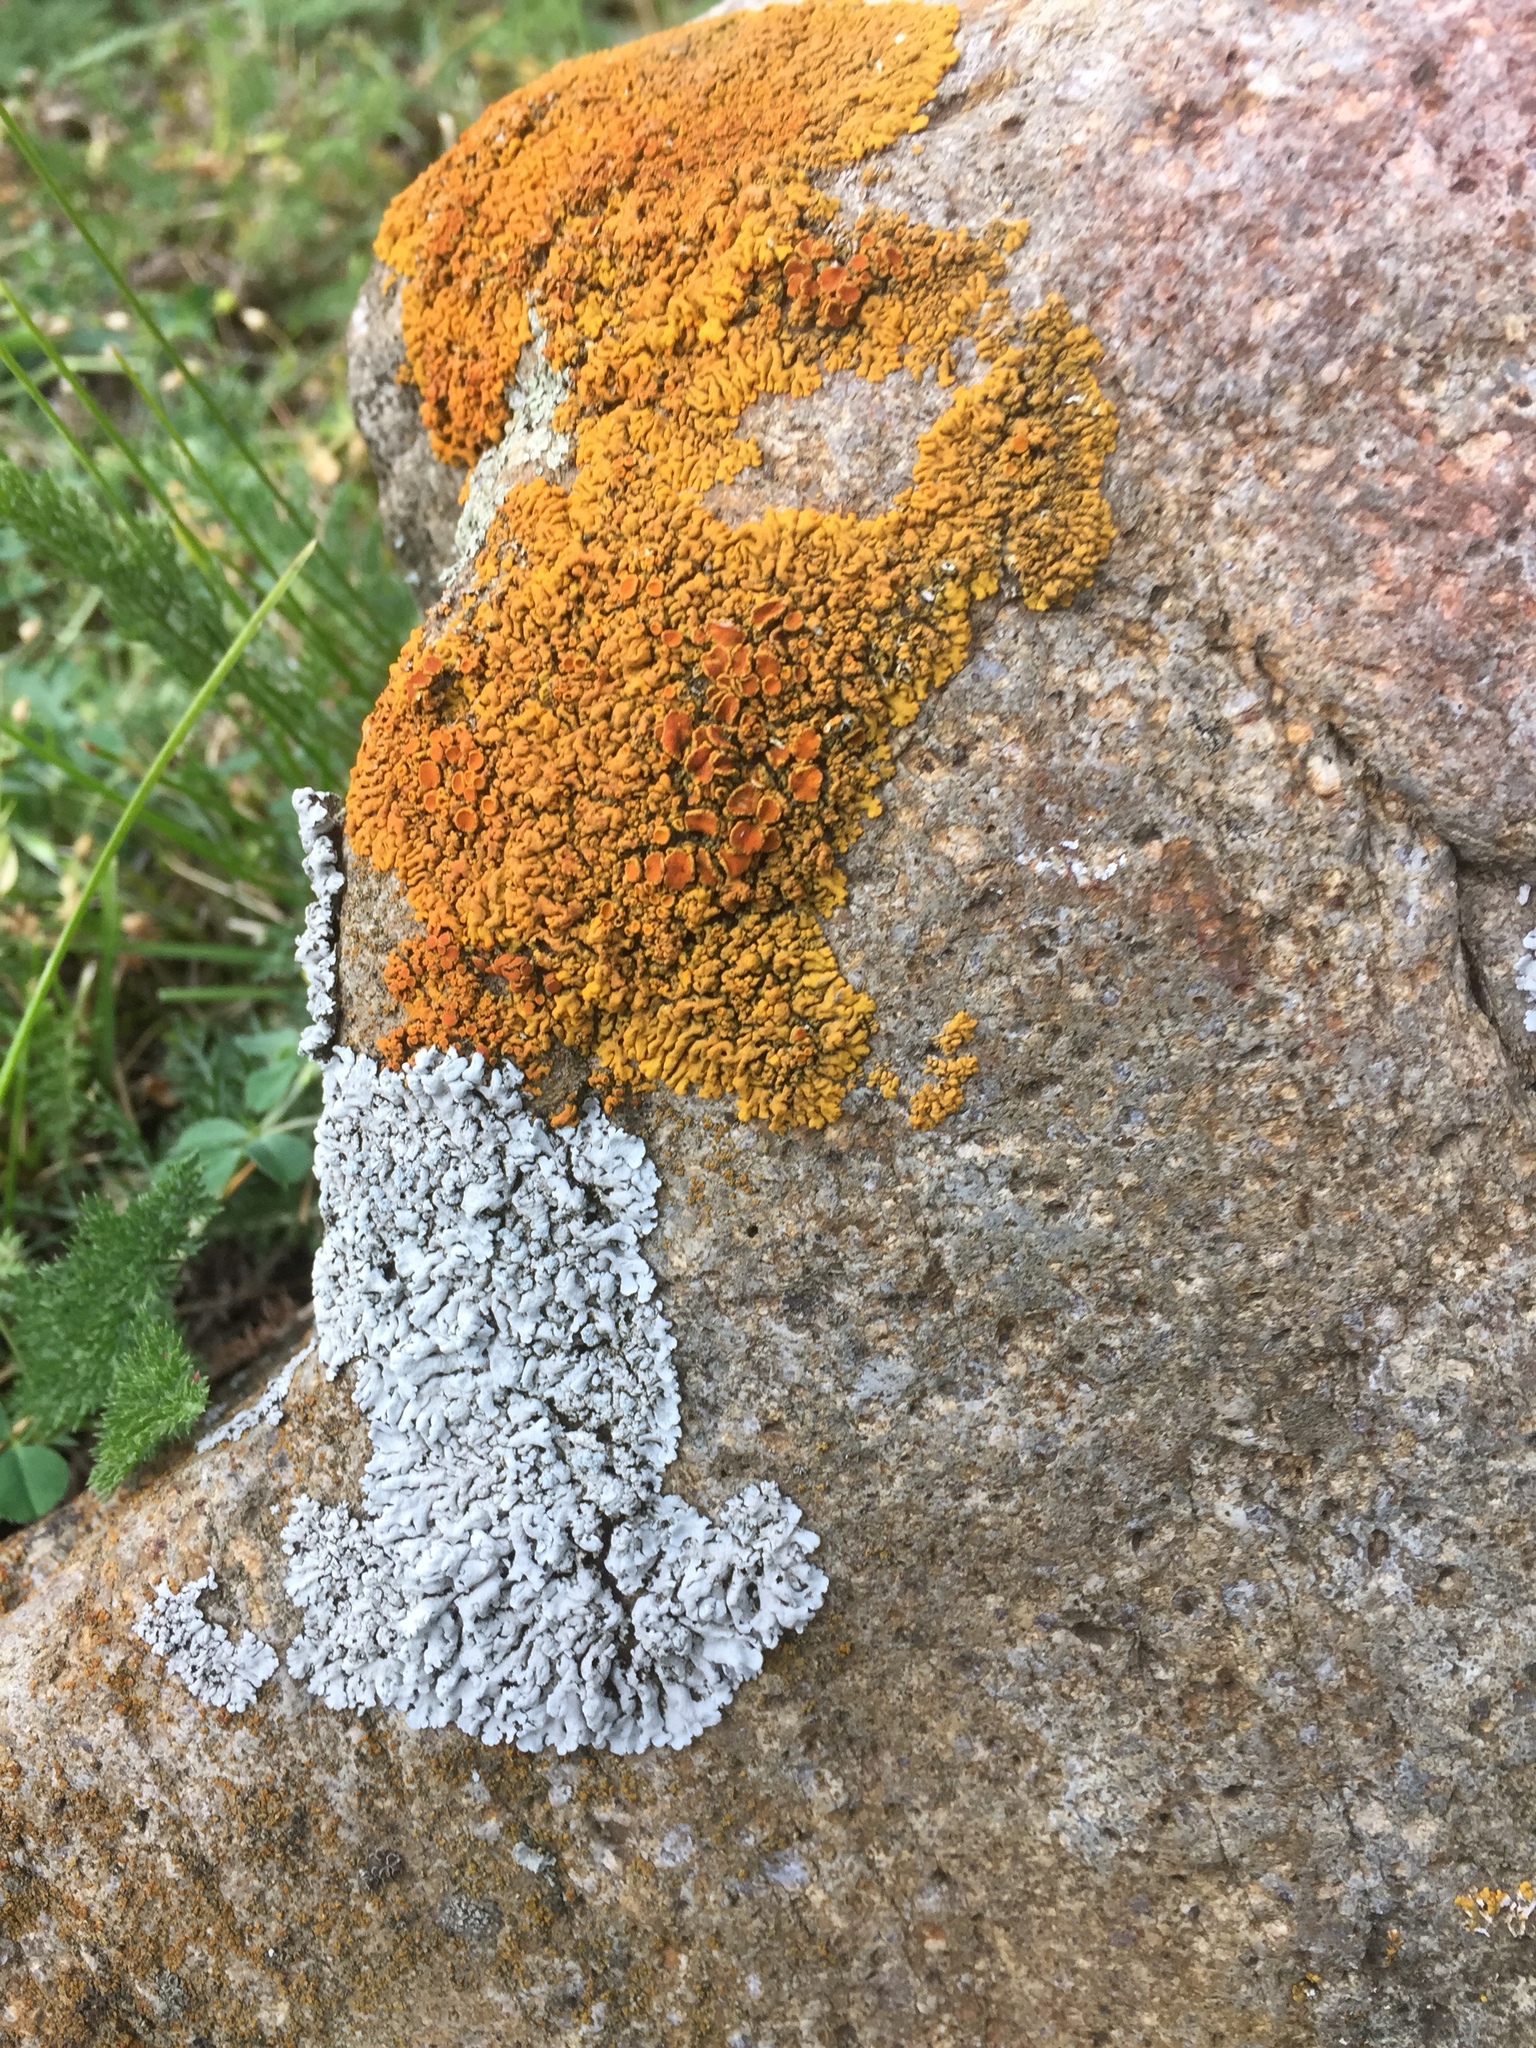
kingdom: Fungi
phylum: Ascomycota
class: Lecanoromycetes
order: Teloschistales
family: Teloschistaceae
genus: Xanthoria
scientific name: Xanthoria elegans
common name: Elegant sunburst lichen
